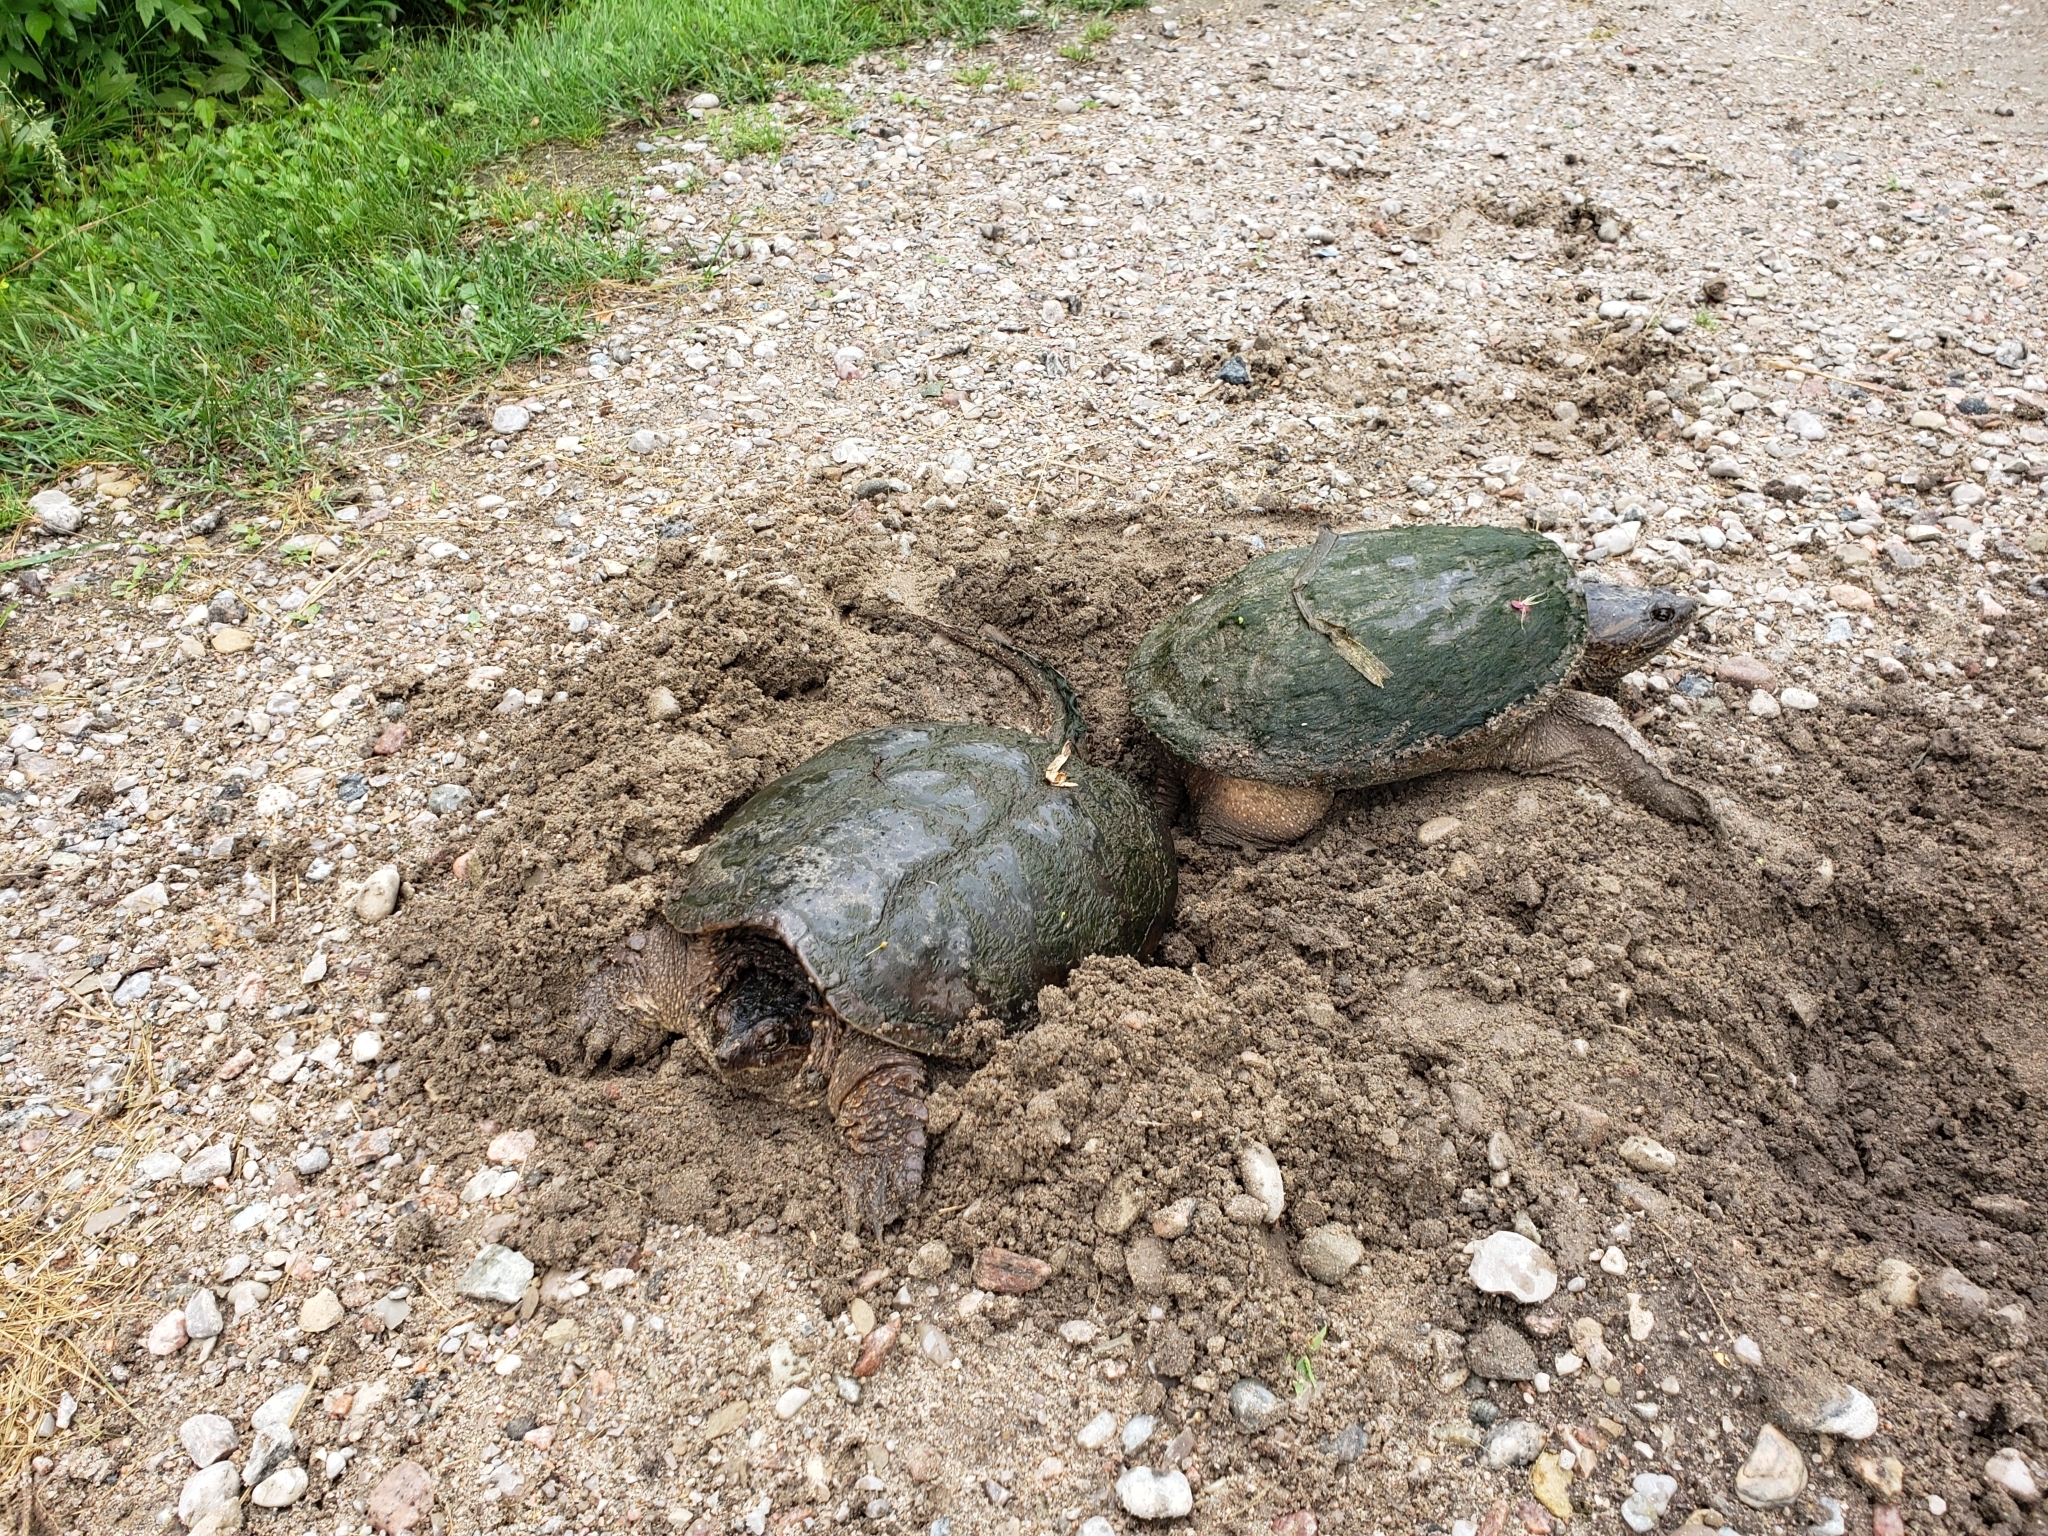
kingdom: Animalia
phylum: Chordata
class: Testudines
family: Chelydridae
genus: Chelydra
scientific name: Chelydra serpentina
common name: Common snapping turtle
